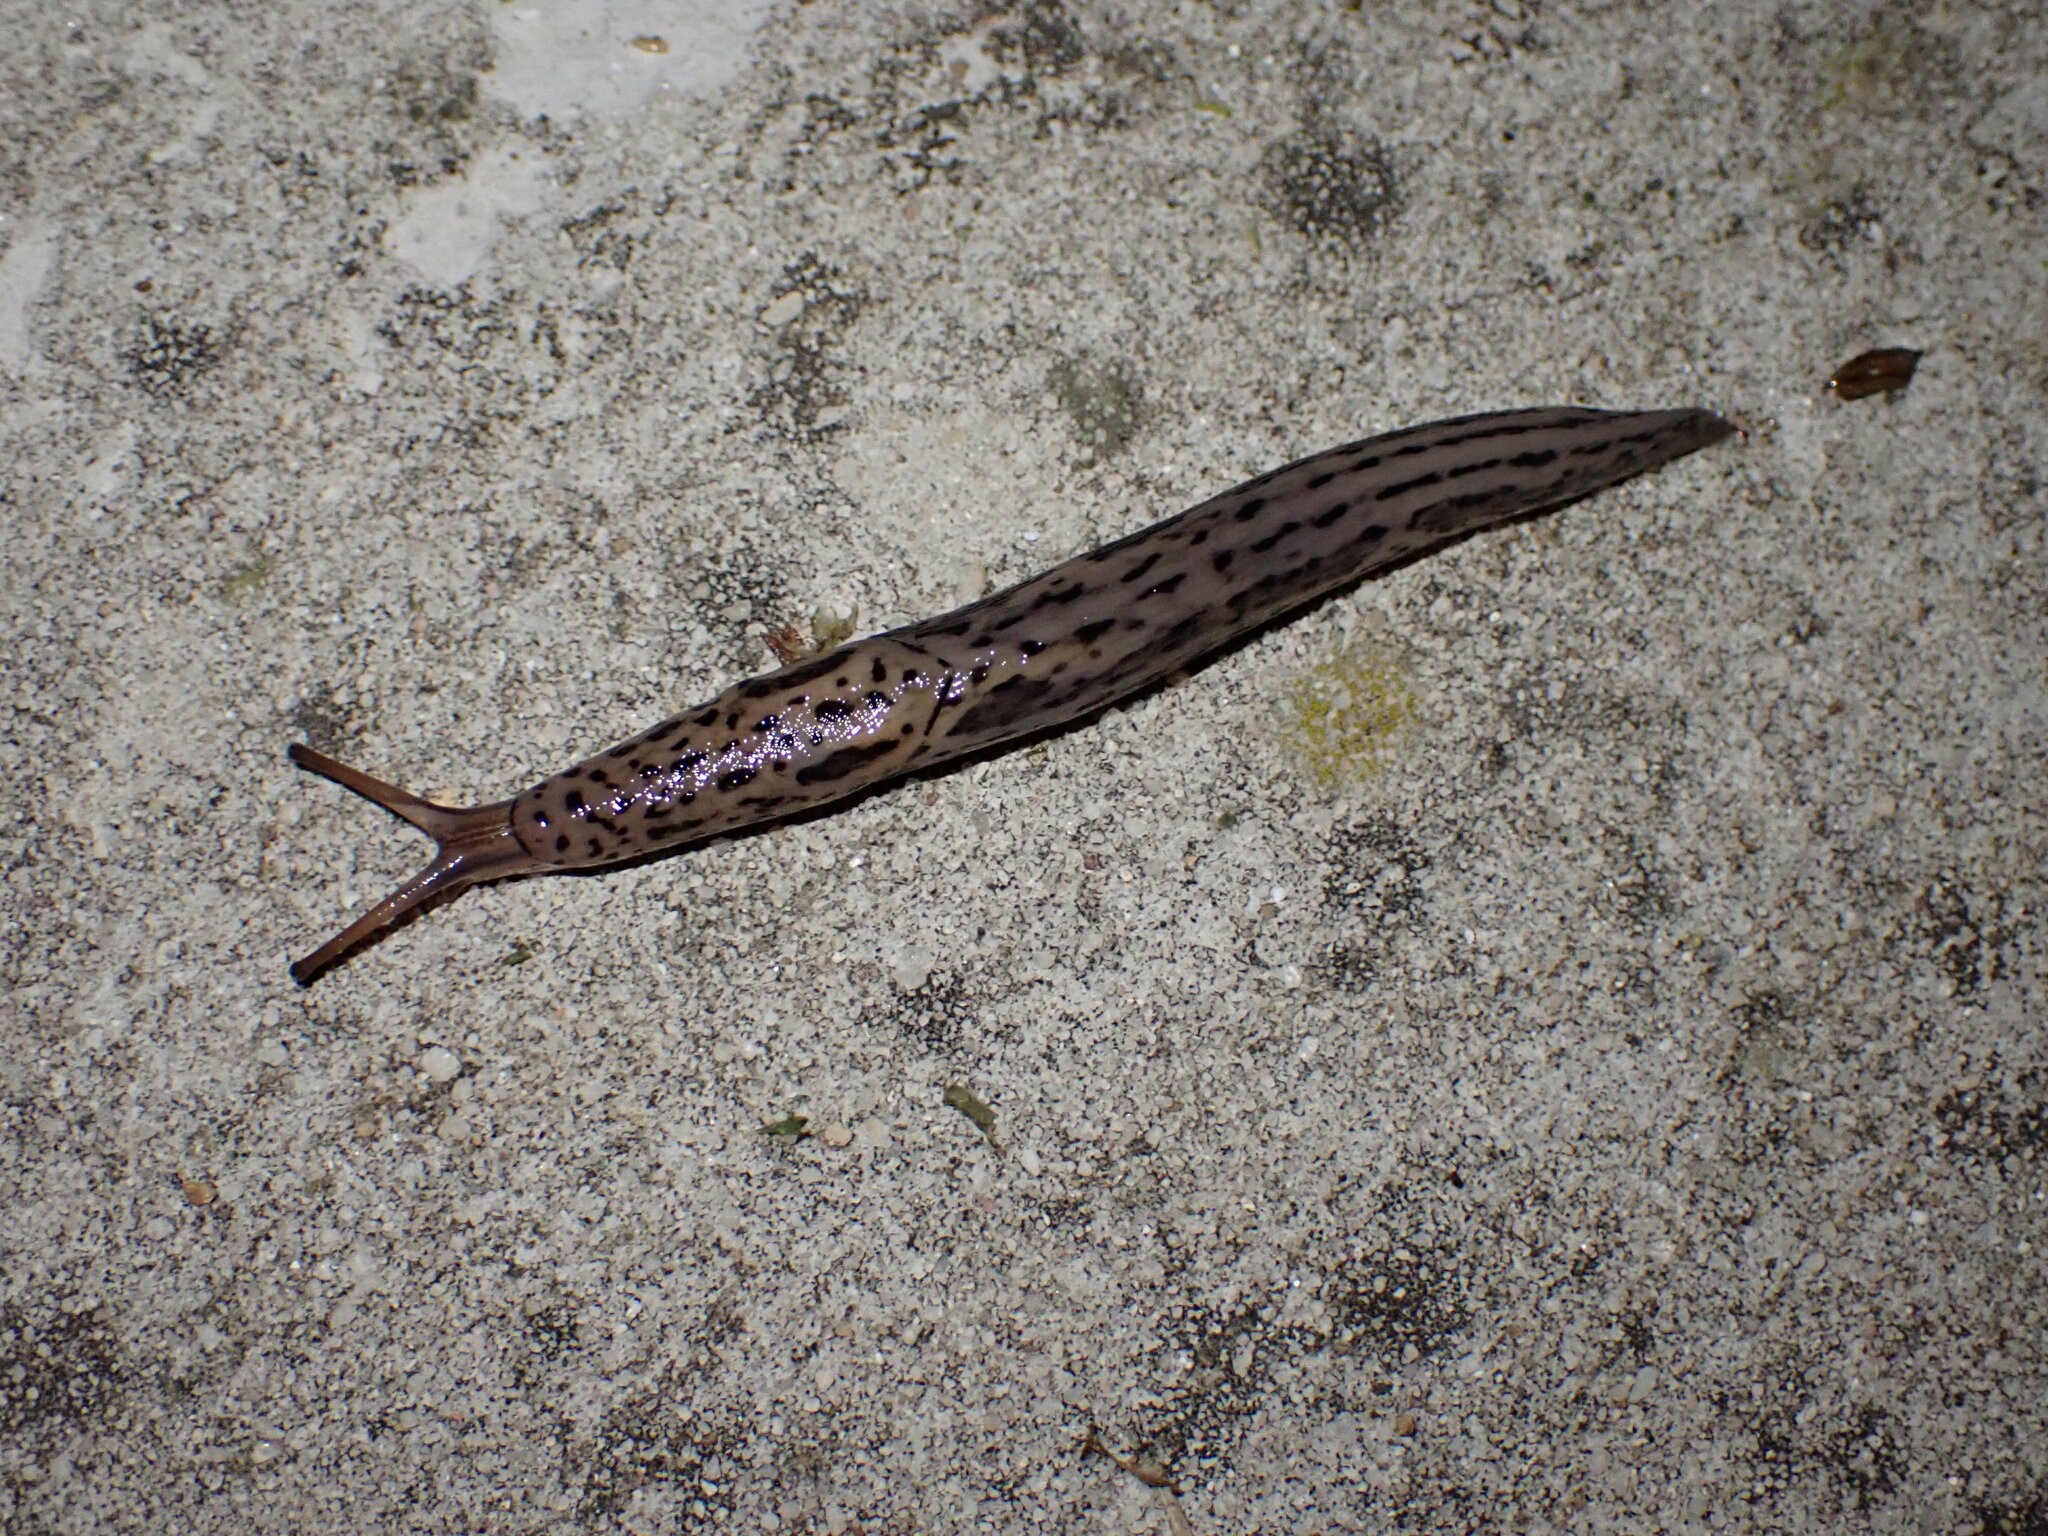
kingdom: Animalia
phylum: Mollusca
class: Gastropoda
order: Stylommatophora
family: Limacidae
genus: Limax
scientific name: Limax maximus
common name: Great grey slug
